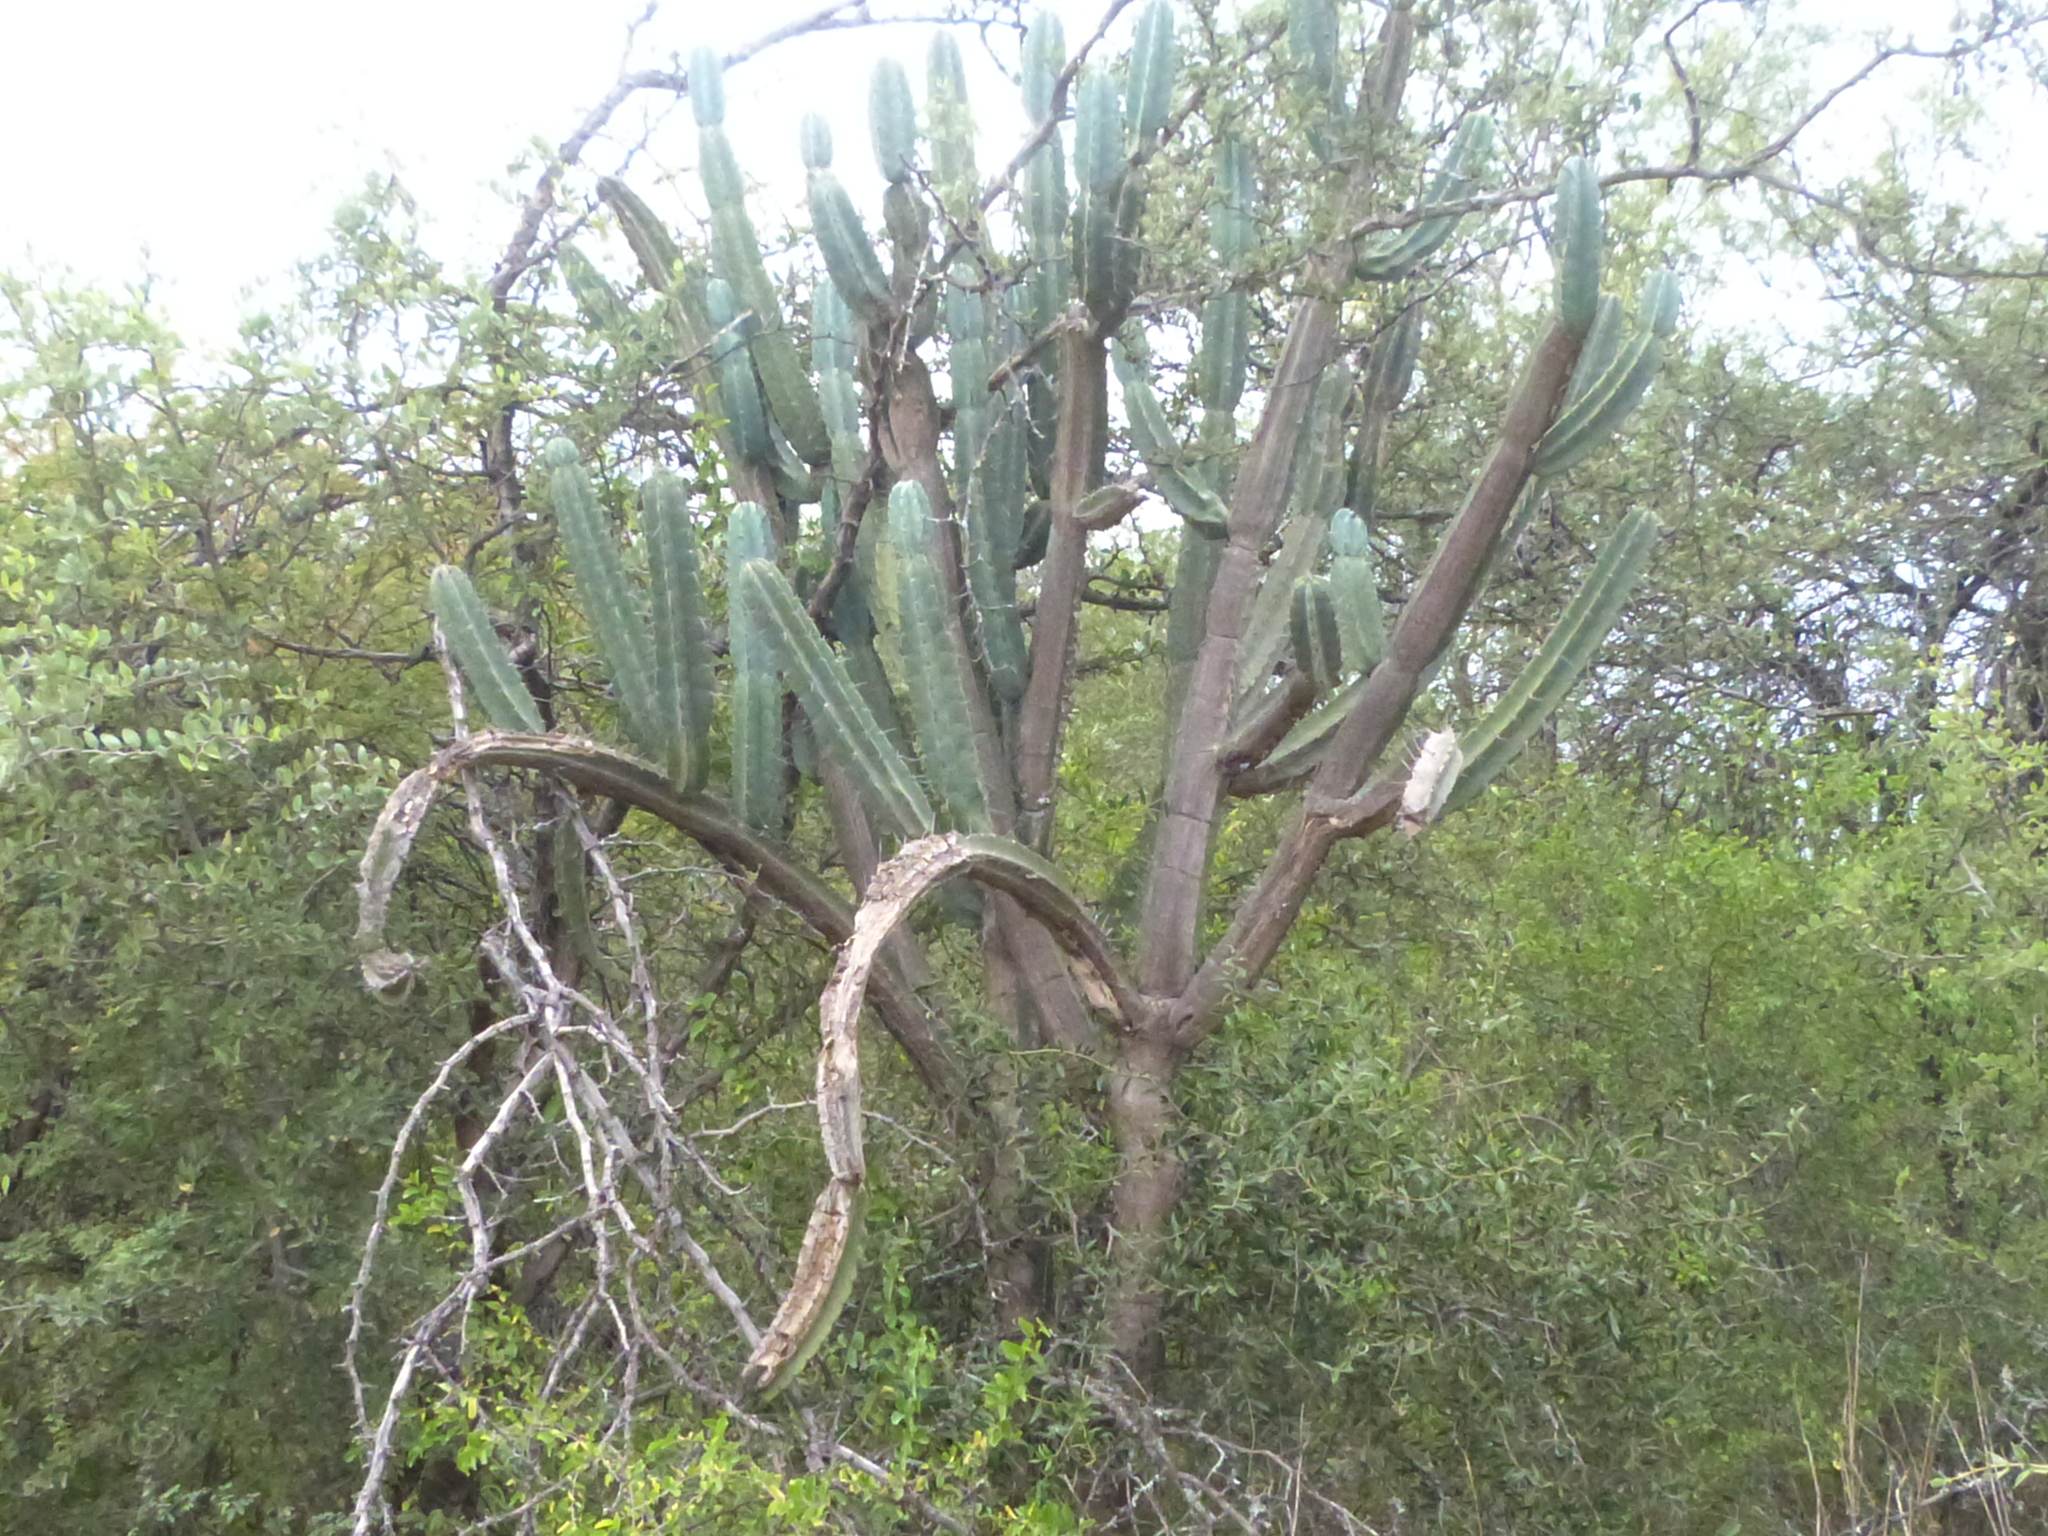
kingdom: Plantae
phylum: Tracheophyta
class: Magnoliopsida
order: Caryophyllales
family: Cactaceae
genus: Cereus
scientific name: Cereus forbesii
